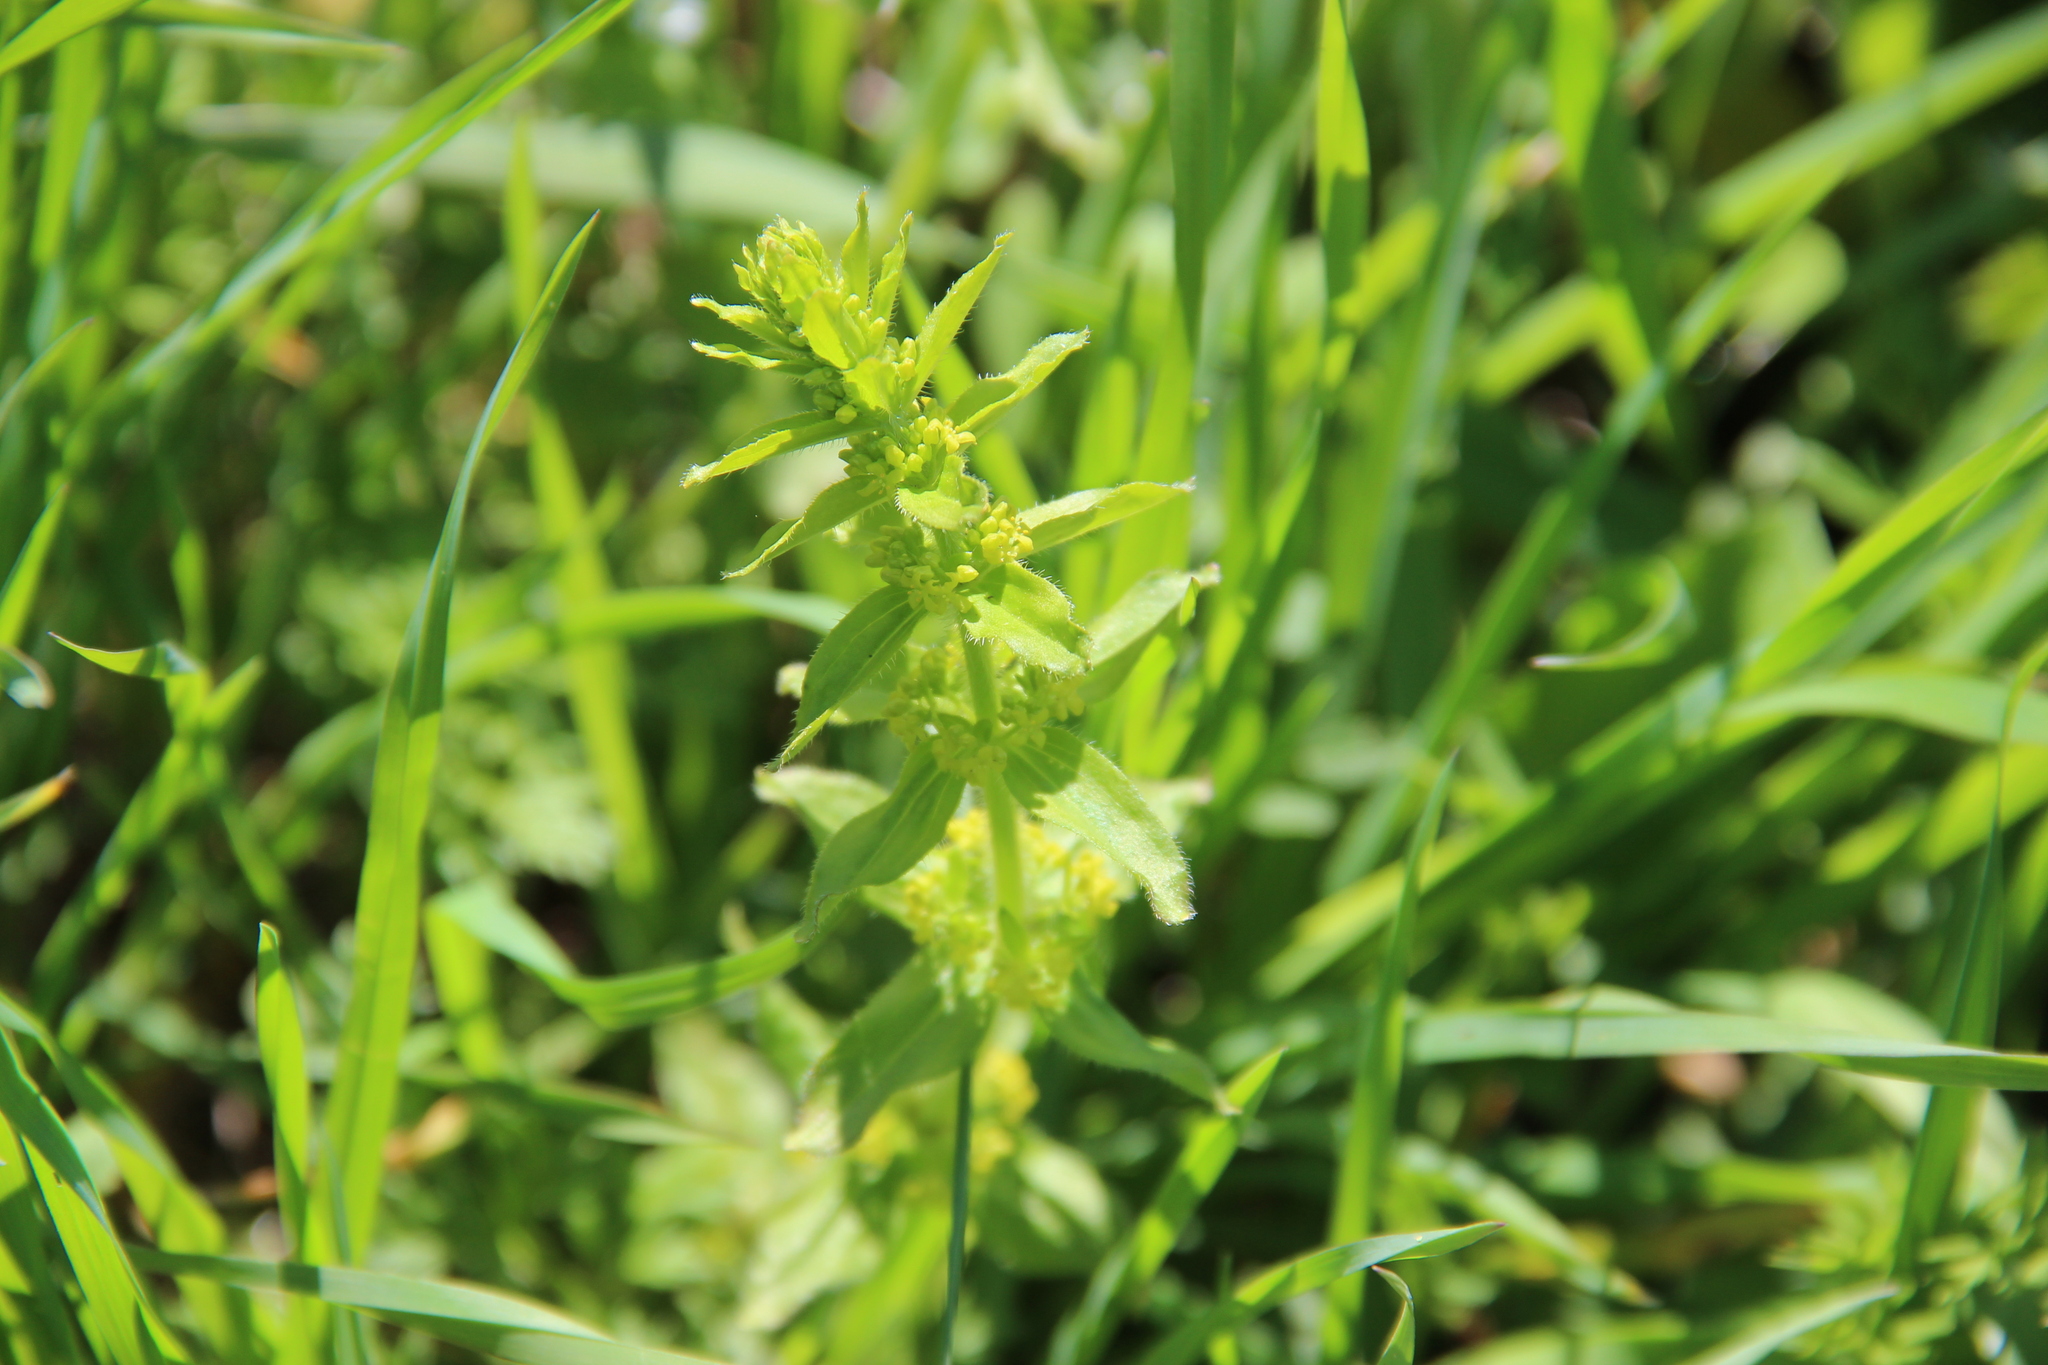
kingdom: Plantae
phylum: Tracheophyta
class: Magnoliopsida
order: Gentianales
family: Rubiaceae
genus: Cruciata
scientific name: Cruciata laevipes
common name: Crosswort
